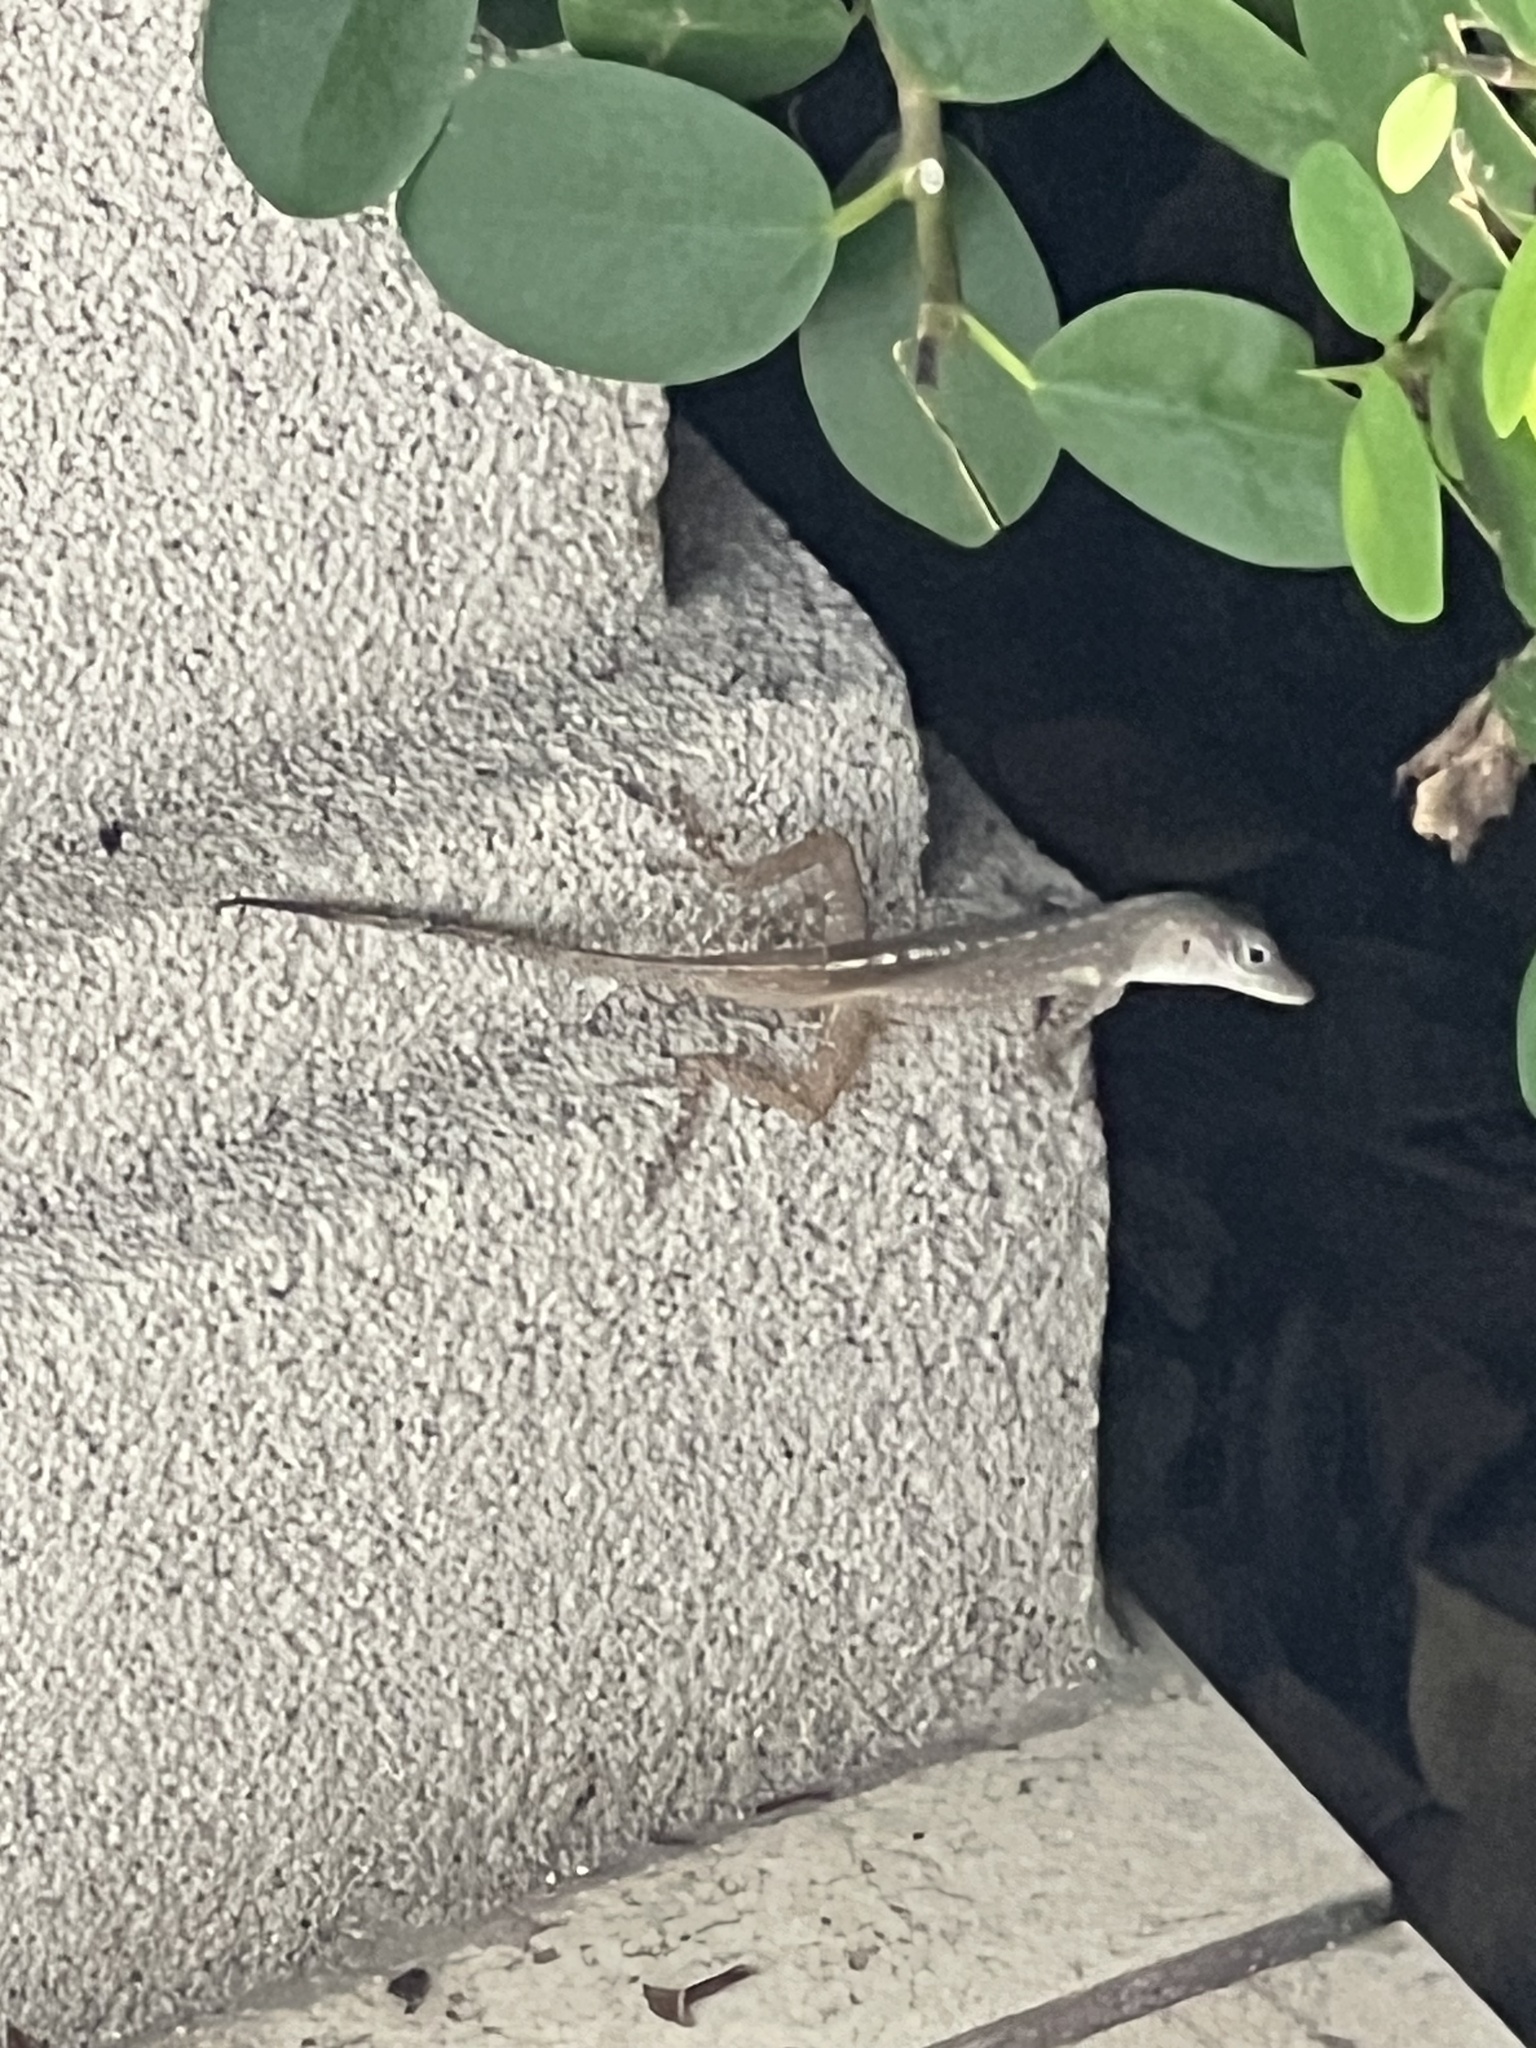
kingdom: Animalia
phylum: Chordata
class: Squamata
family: Dactyloidae
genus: Anolis
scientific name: Anolis conspersus
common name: Grand cayman anole
